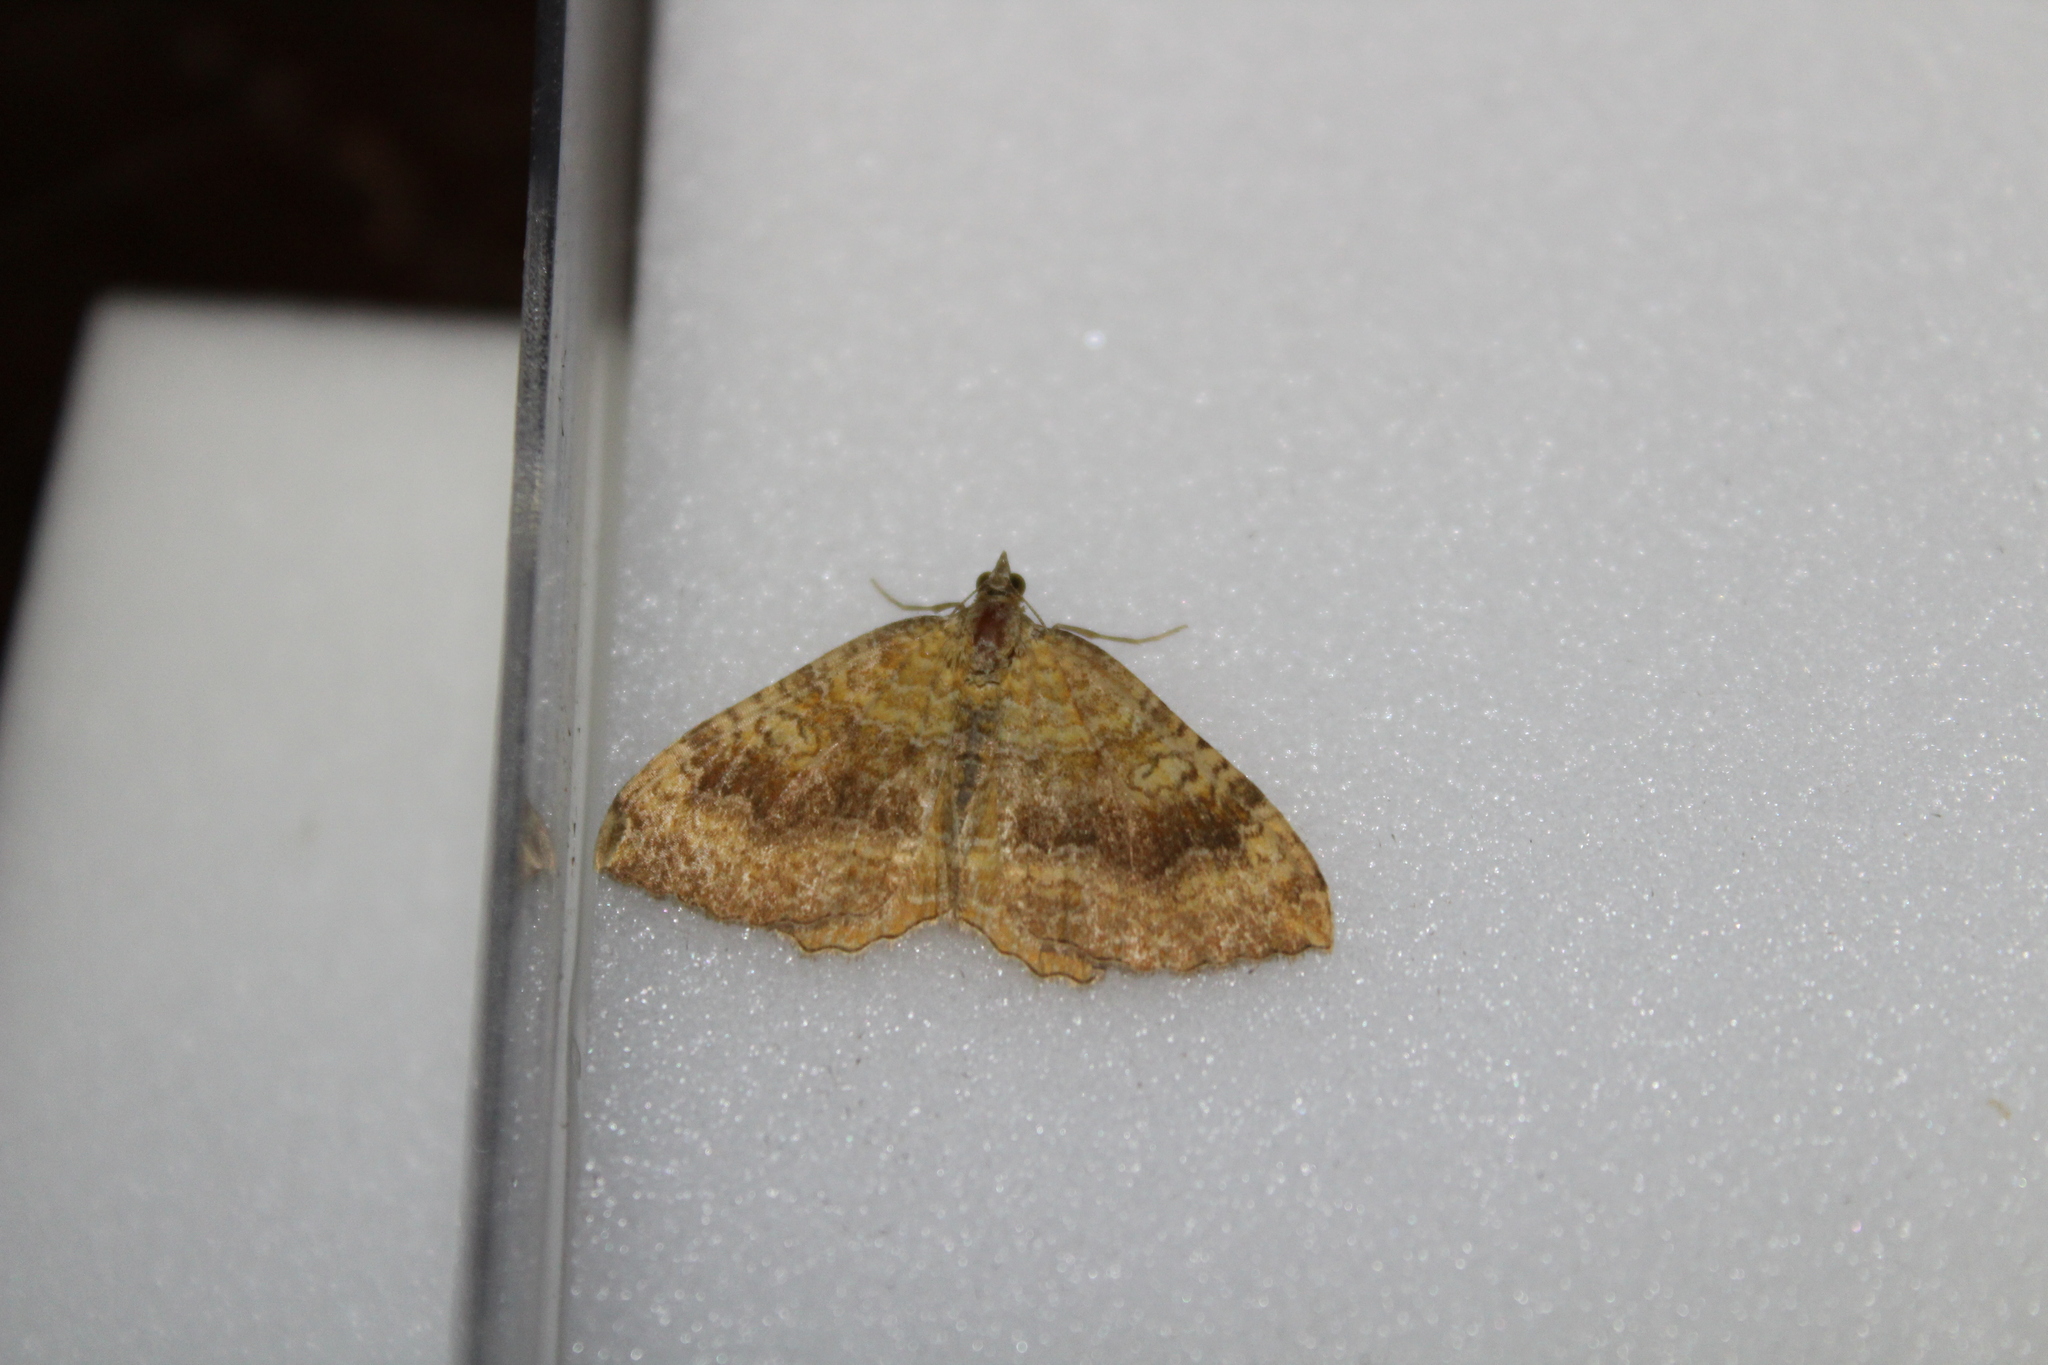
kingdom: Animalia
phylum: Arthropoda
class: Insecta
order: Lepidoptera
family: Geometridae
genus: Camptogramma
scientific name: Camptogramma bilineata
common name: Yellow shell
